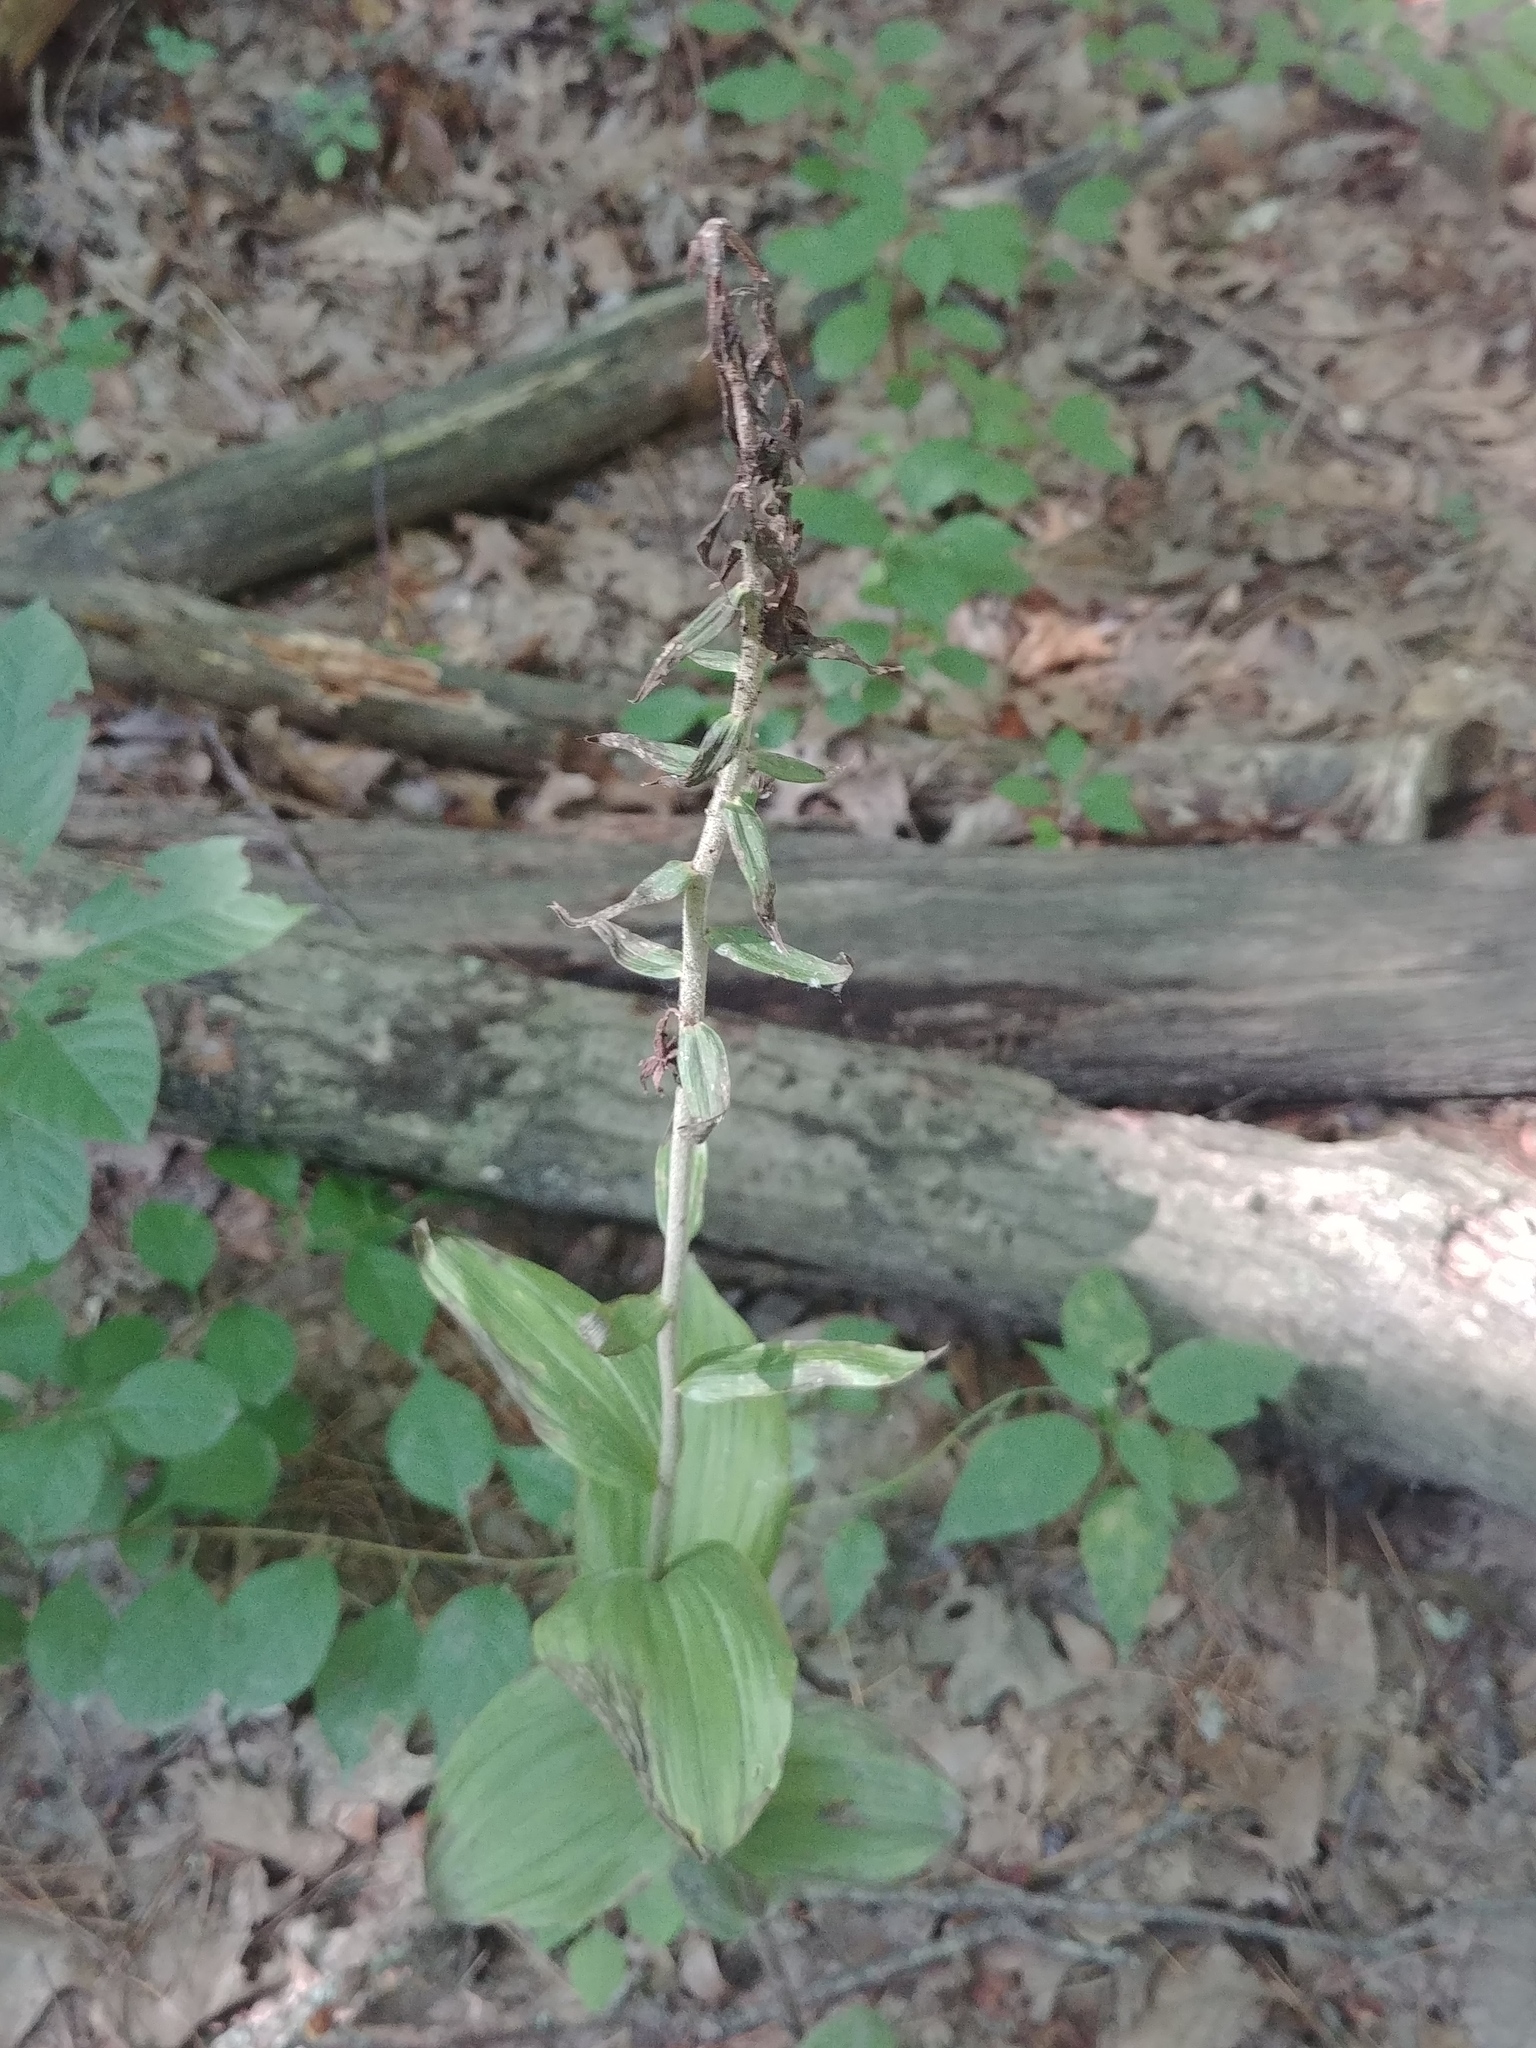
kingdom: Plantae
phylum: Tracheophyta
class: Liliopsida
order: Asparagales
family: Orchidaceae
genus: Epipactis
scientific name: Epipactis helleborine
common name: Broad-leaved helleborine
